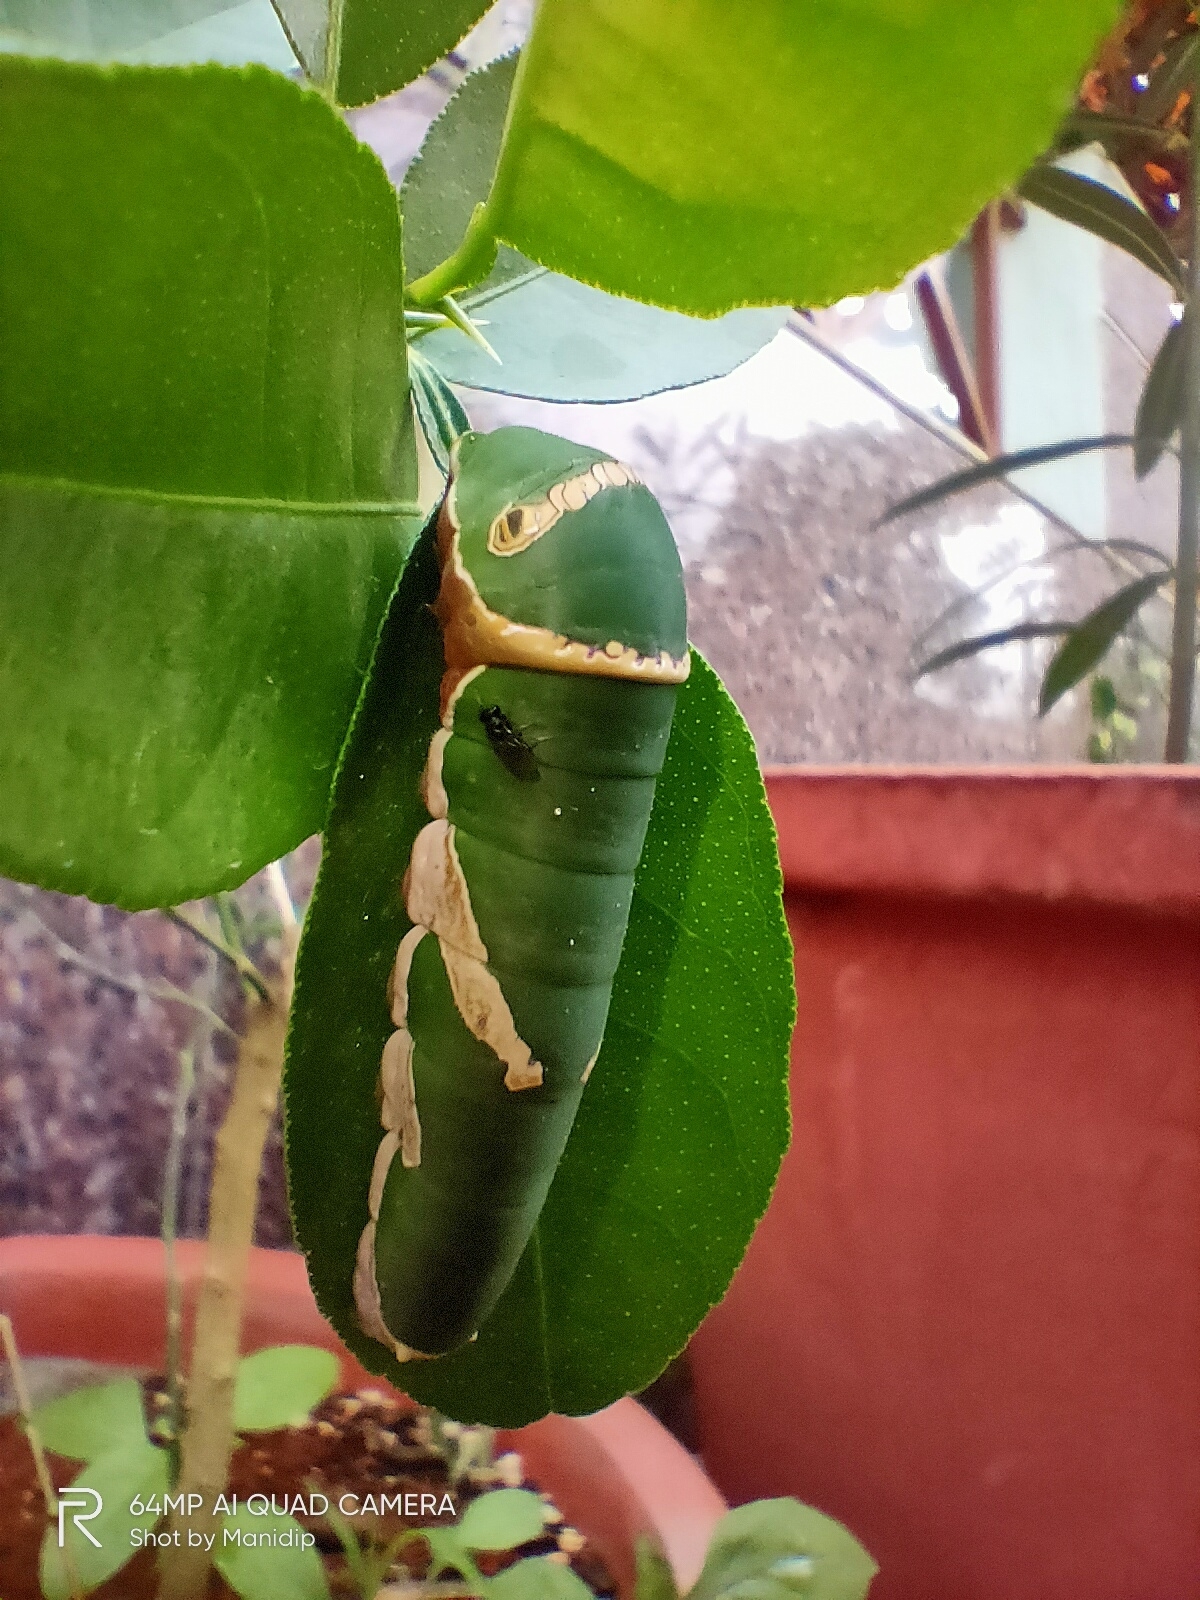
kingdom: Animalia
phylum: Arthropoda
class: Insecta
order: Lepidoptera
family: Papilionidae
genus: Papilio
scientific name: Papilio polytes
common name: Common mormon
